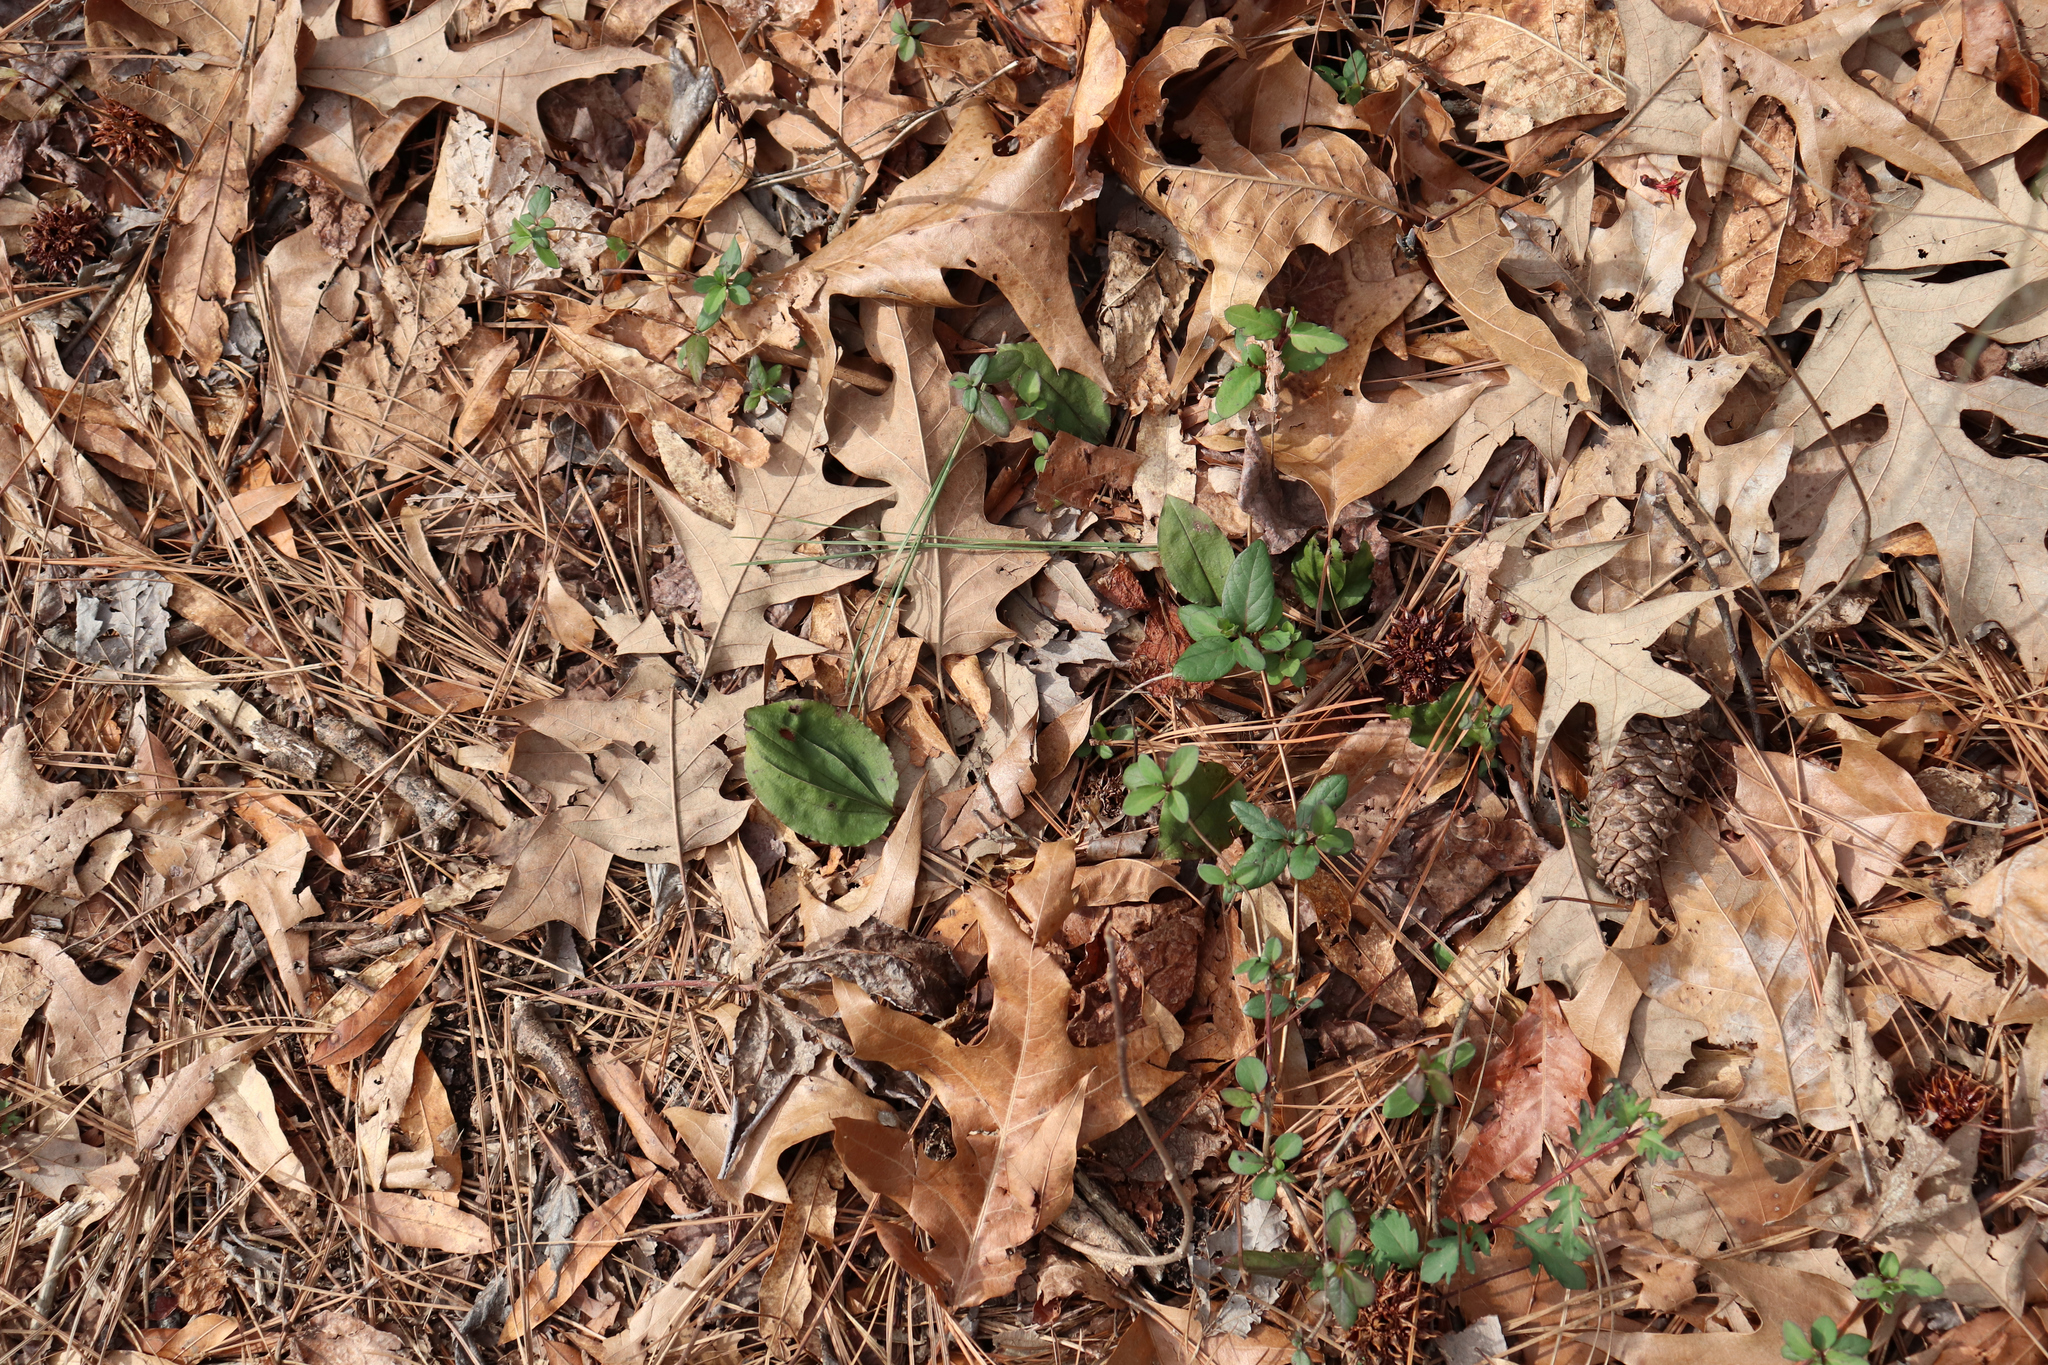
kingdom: Plantae
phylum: Tracheophyta
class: Liliopsida
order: Asparagales
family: Orchidaceae
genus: Tipularia
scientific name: Tipularia discolor
